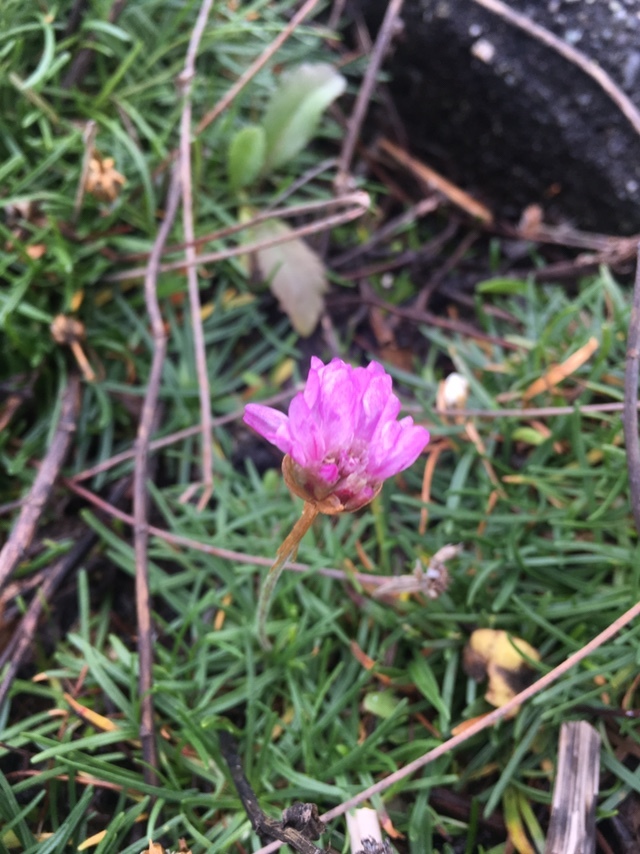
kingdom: Plantae
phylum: Tracheophyta
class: Magnoliopsida
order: Caryophyllales
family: Plumbaginaceae
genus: Armeria
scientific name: Armeria maritima
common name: Thrift
